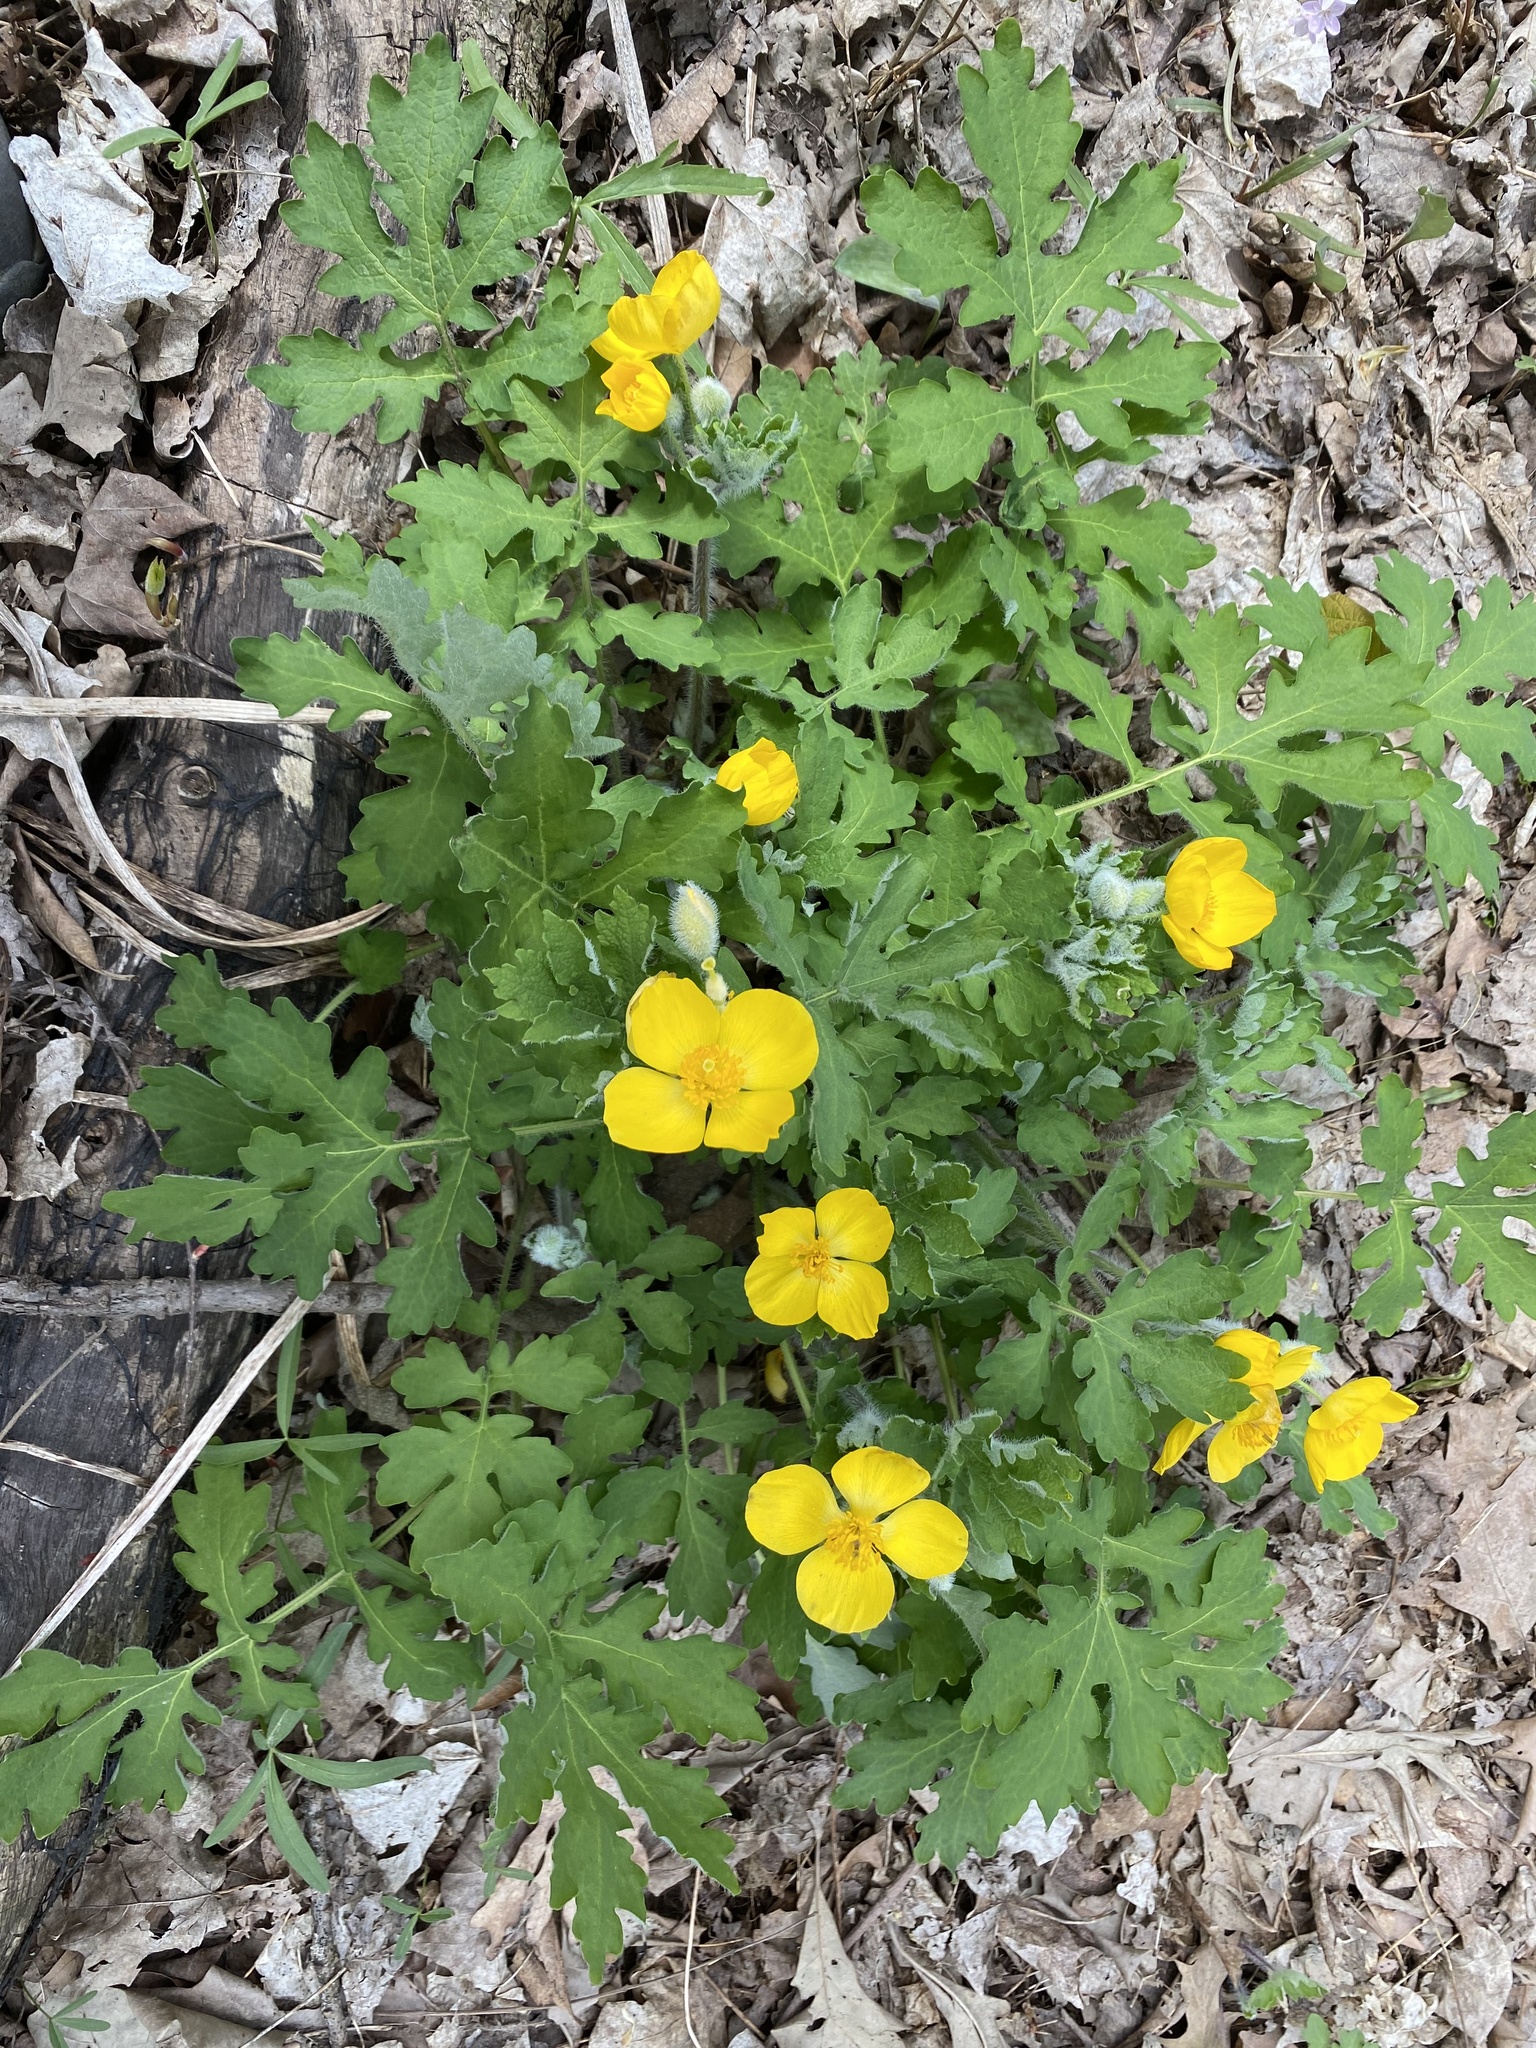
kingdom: Plantae
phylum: Tracheophyta
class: Magnoliopsida
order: Ranunculales
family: Papaveraceae
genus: Stylophorum
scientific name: Stylophorum diphyllum
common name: Celandine poppy
